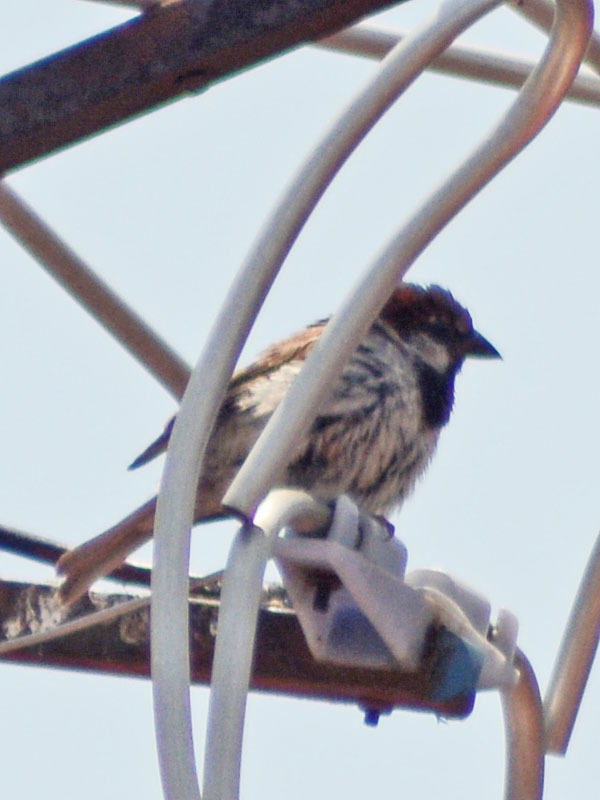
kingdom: Animalia
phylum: Chordata
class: Aves
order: Passeriformes
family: Passeridae
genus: Passer
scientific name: Passer domesticus
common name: House sparrow
